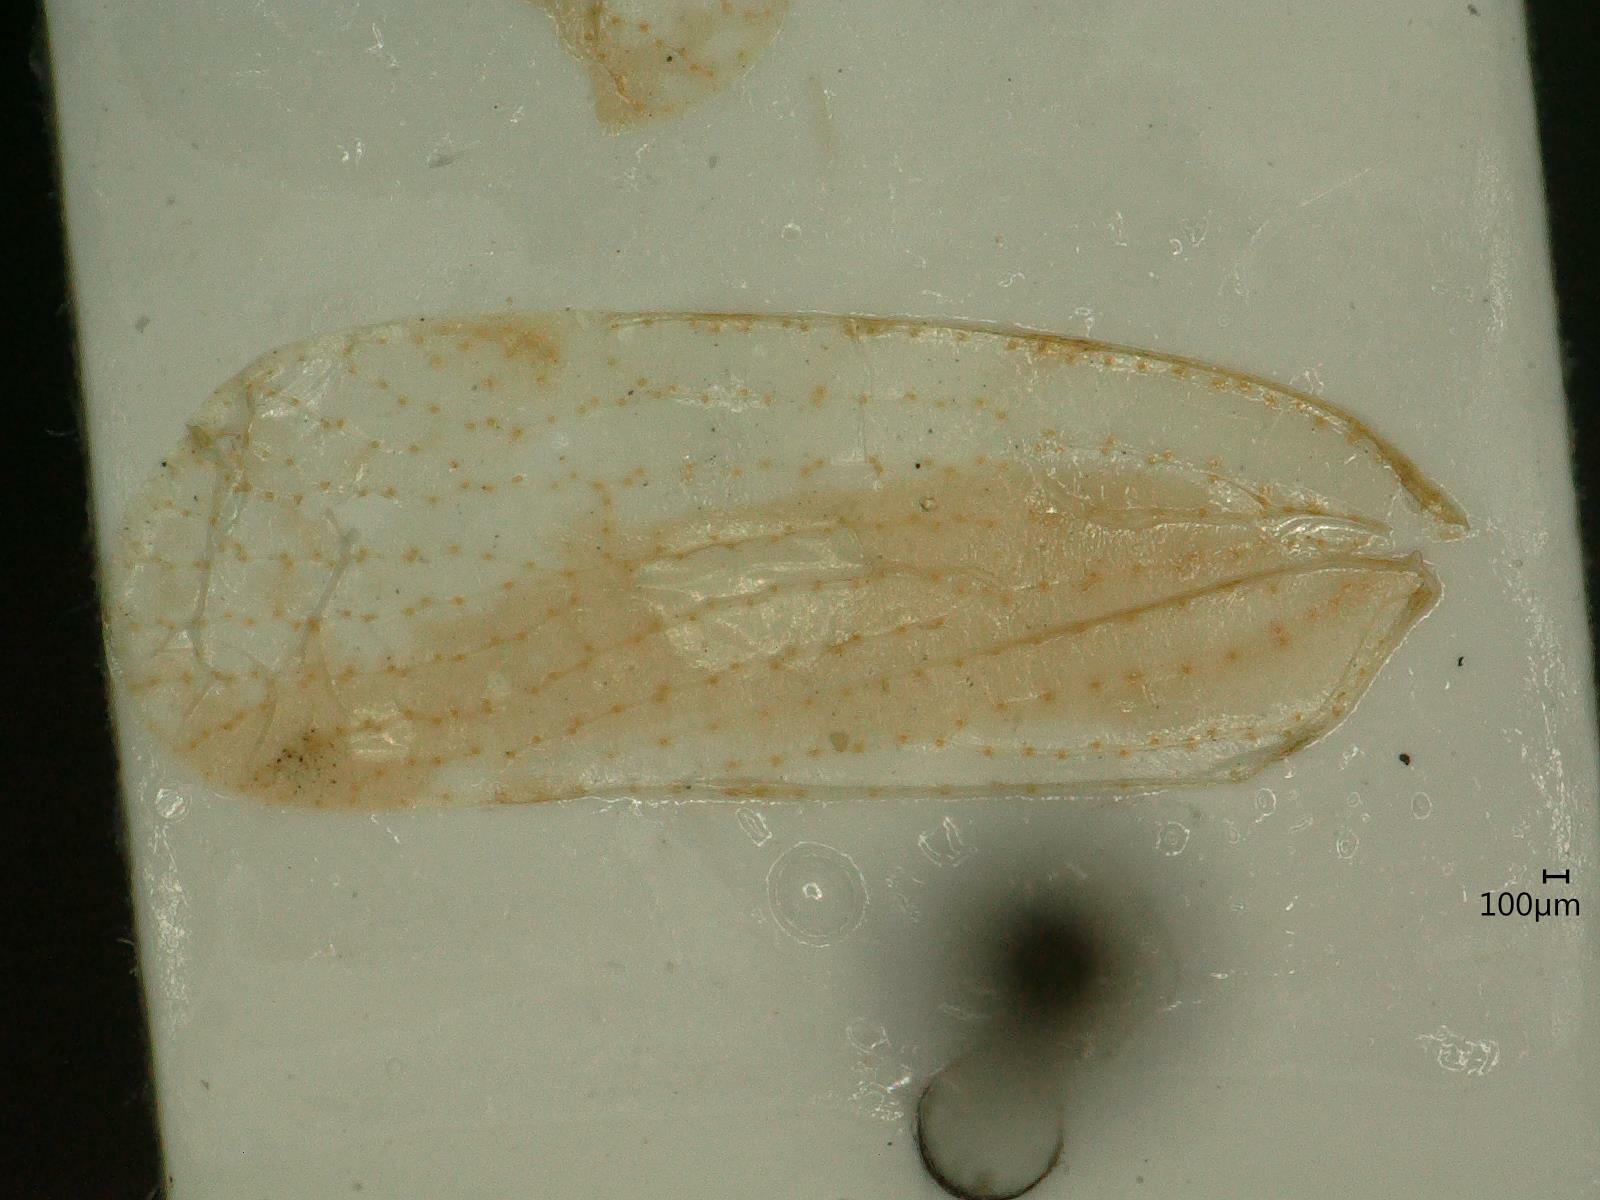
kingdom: Animalia
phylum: Arthropoda
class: Insecta
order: Hemiptera
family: Cixiidae
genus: Tachycixius
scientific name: Tachycixius pilosus
